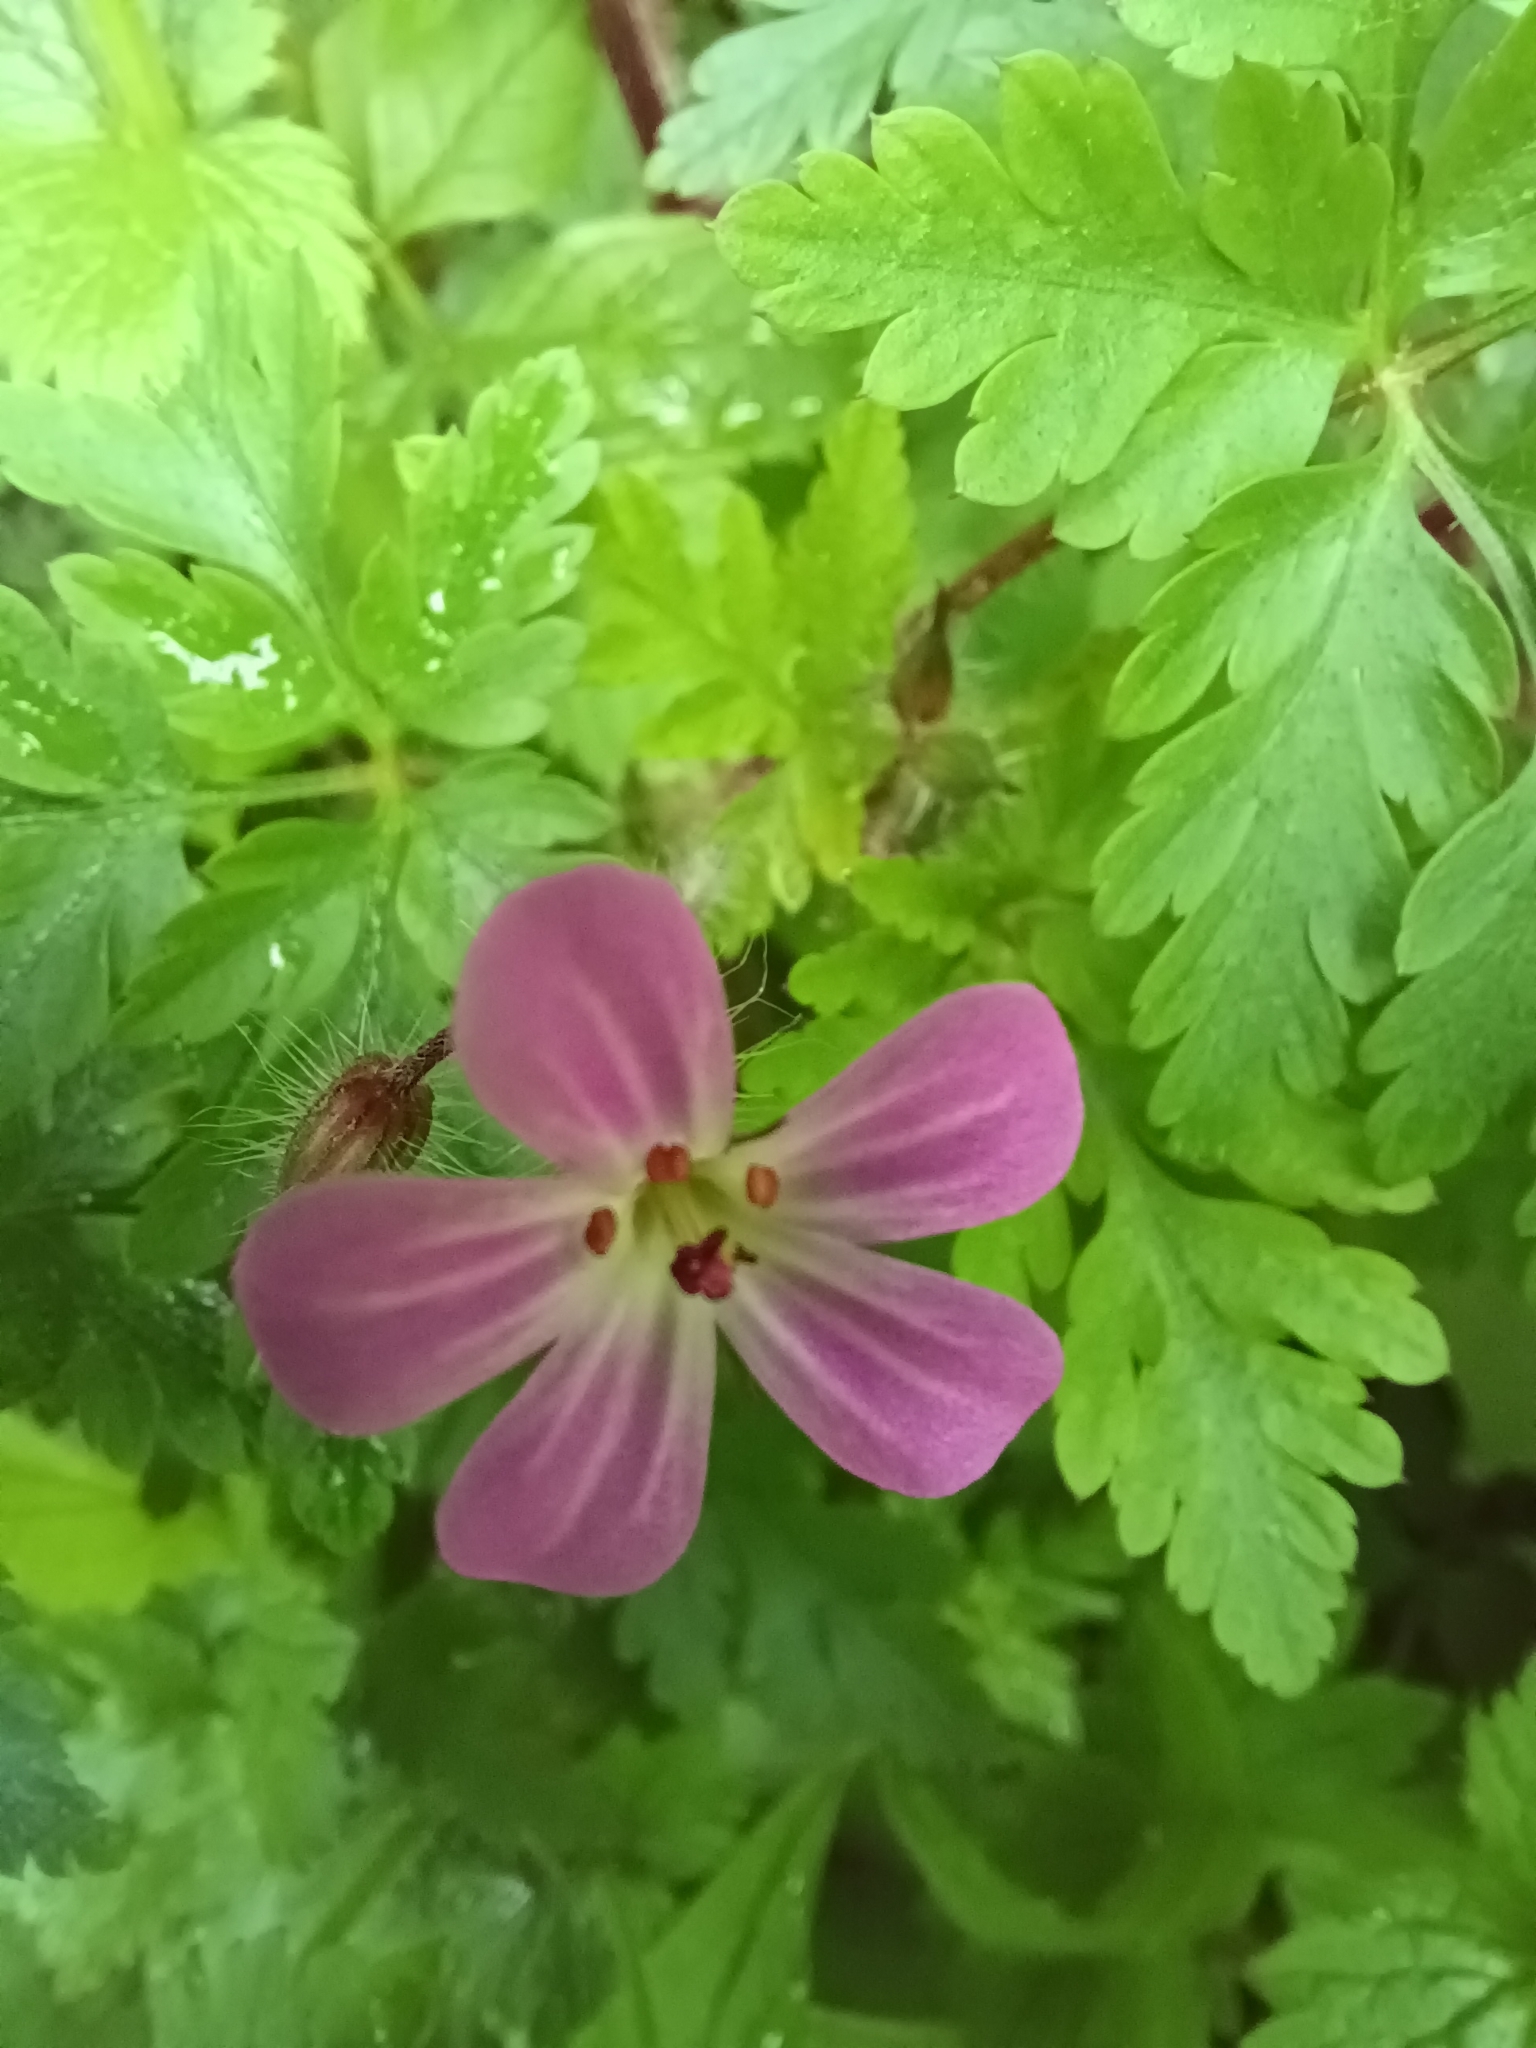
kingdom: Plantae
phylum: Tracheophyta
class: Magnoliopsida
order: Geraniales
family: Geraniaceae
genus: Geranium
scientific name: Geranium robertianum
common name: Herb-robert
